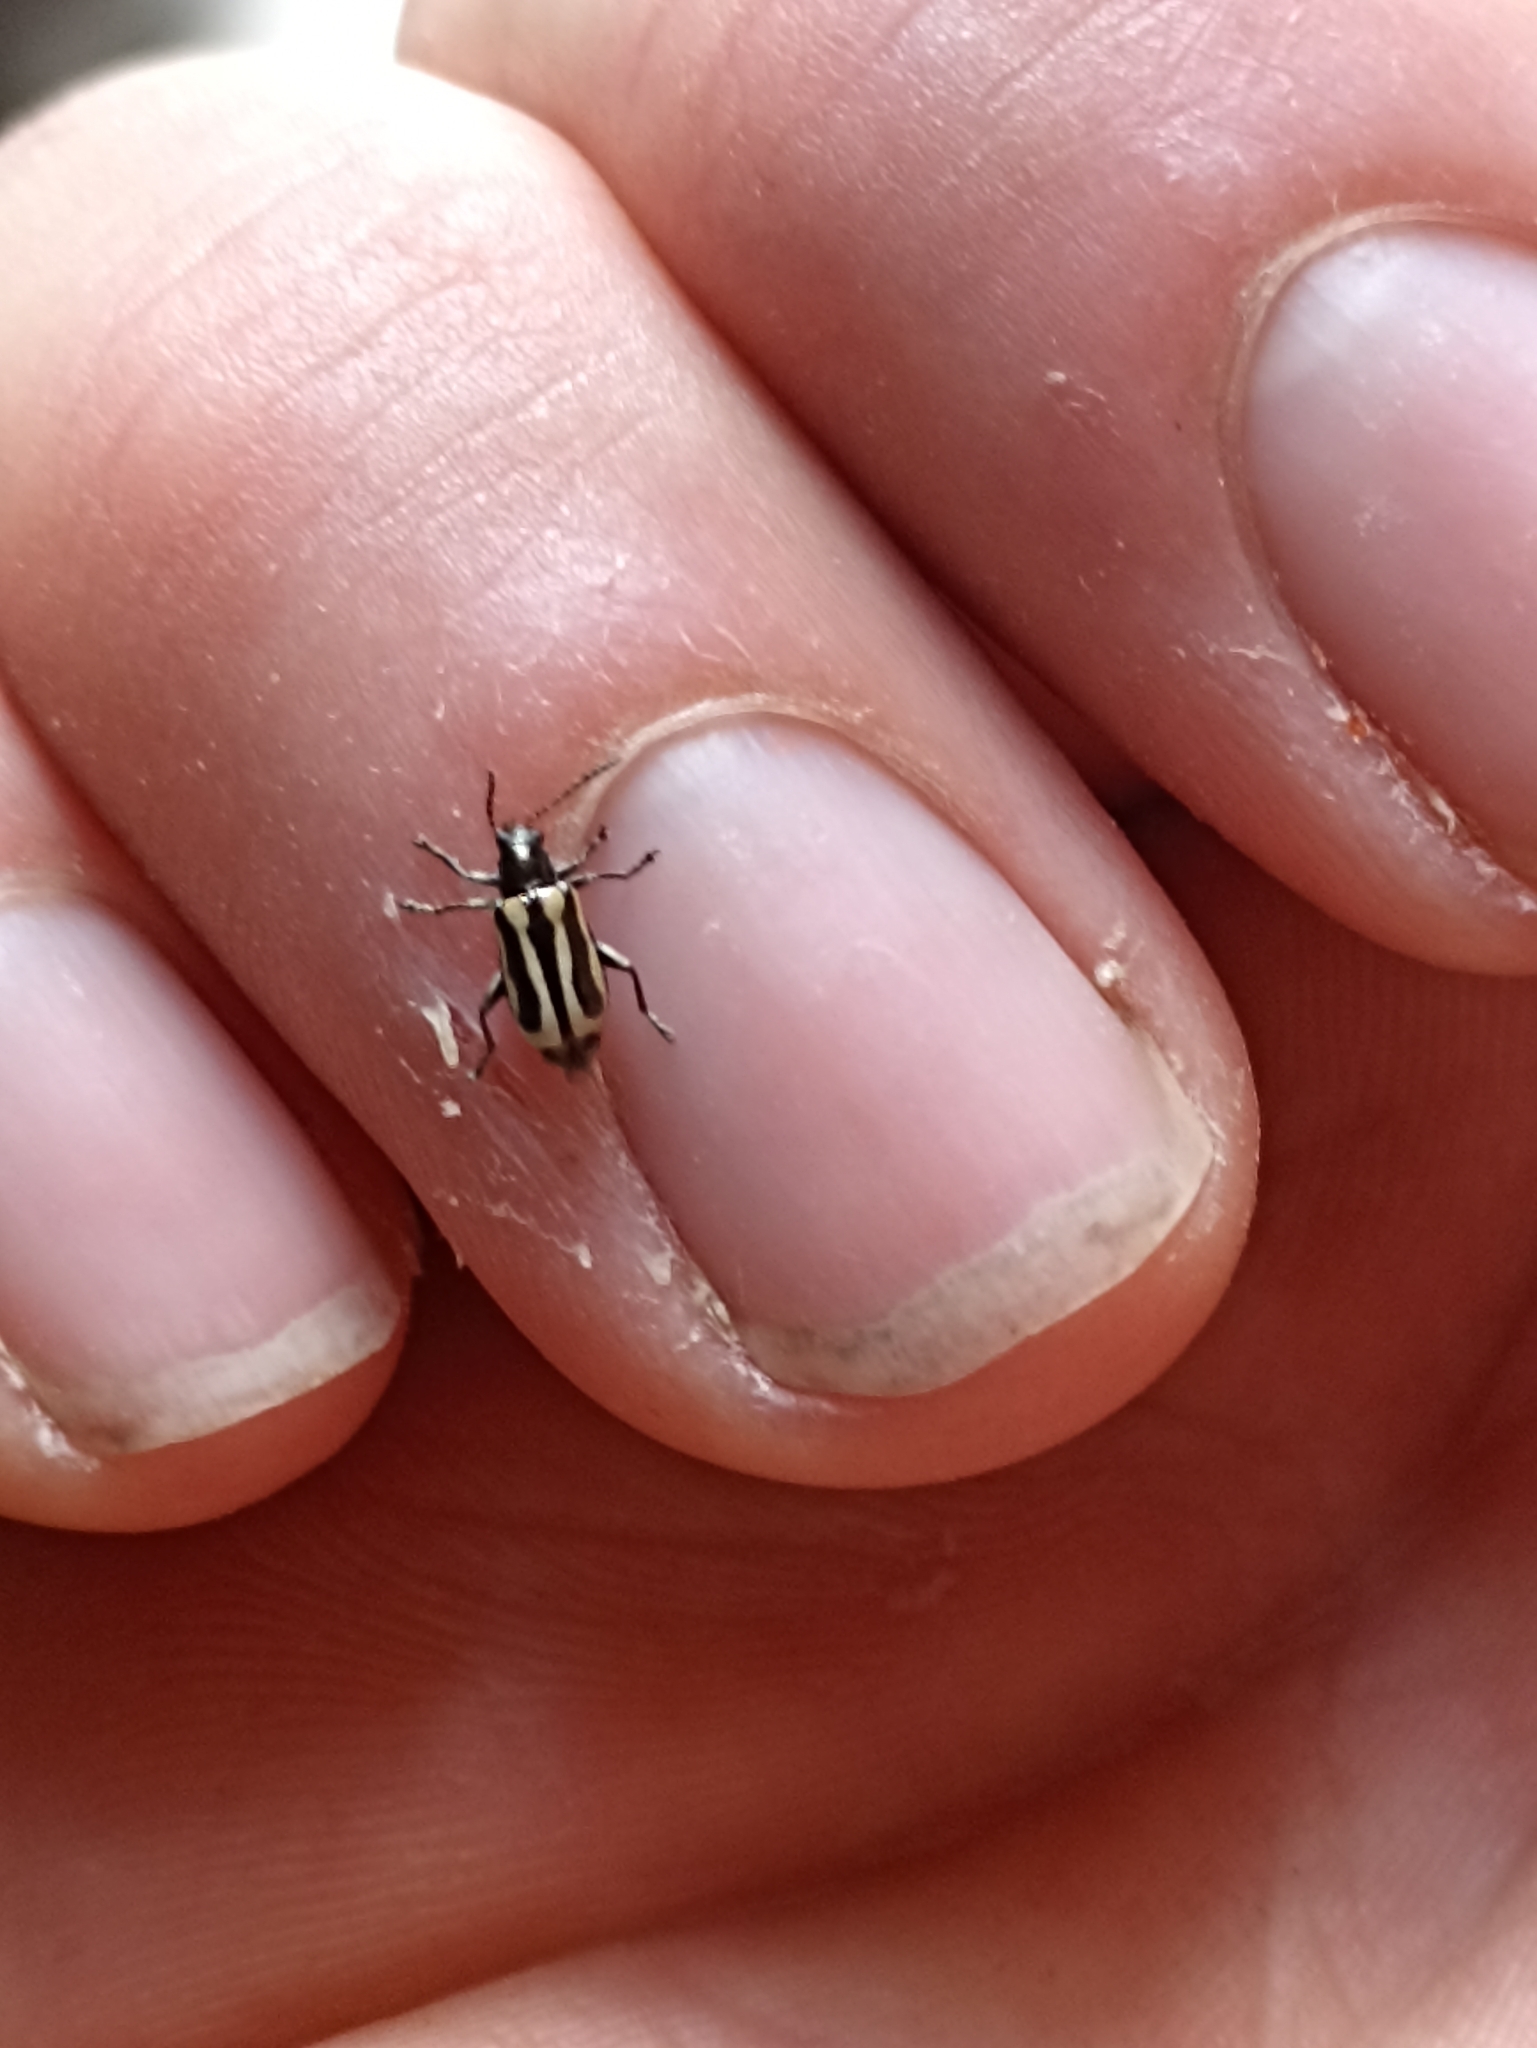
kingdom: Animalia
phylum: Arthropoda
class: Insecta
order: Coleoptera
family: Chrysomelidae
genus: Agasicles
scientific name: Agasicles hygrophila
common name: Alligatorweed flea beetle
